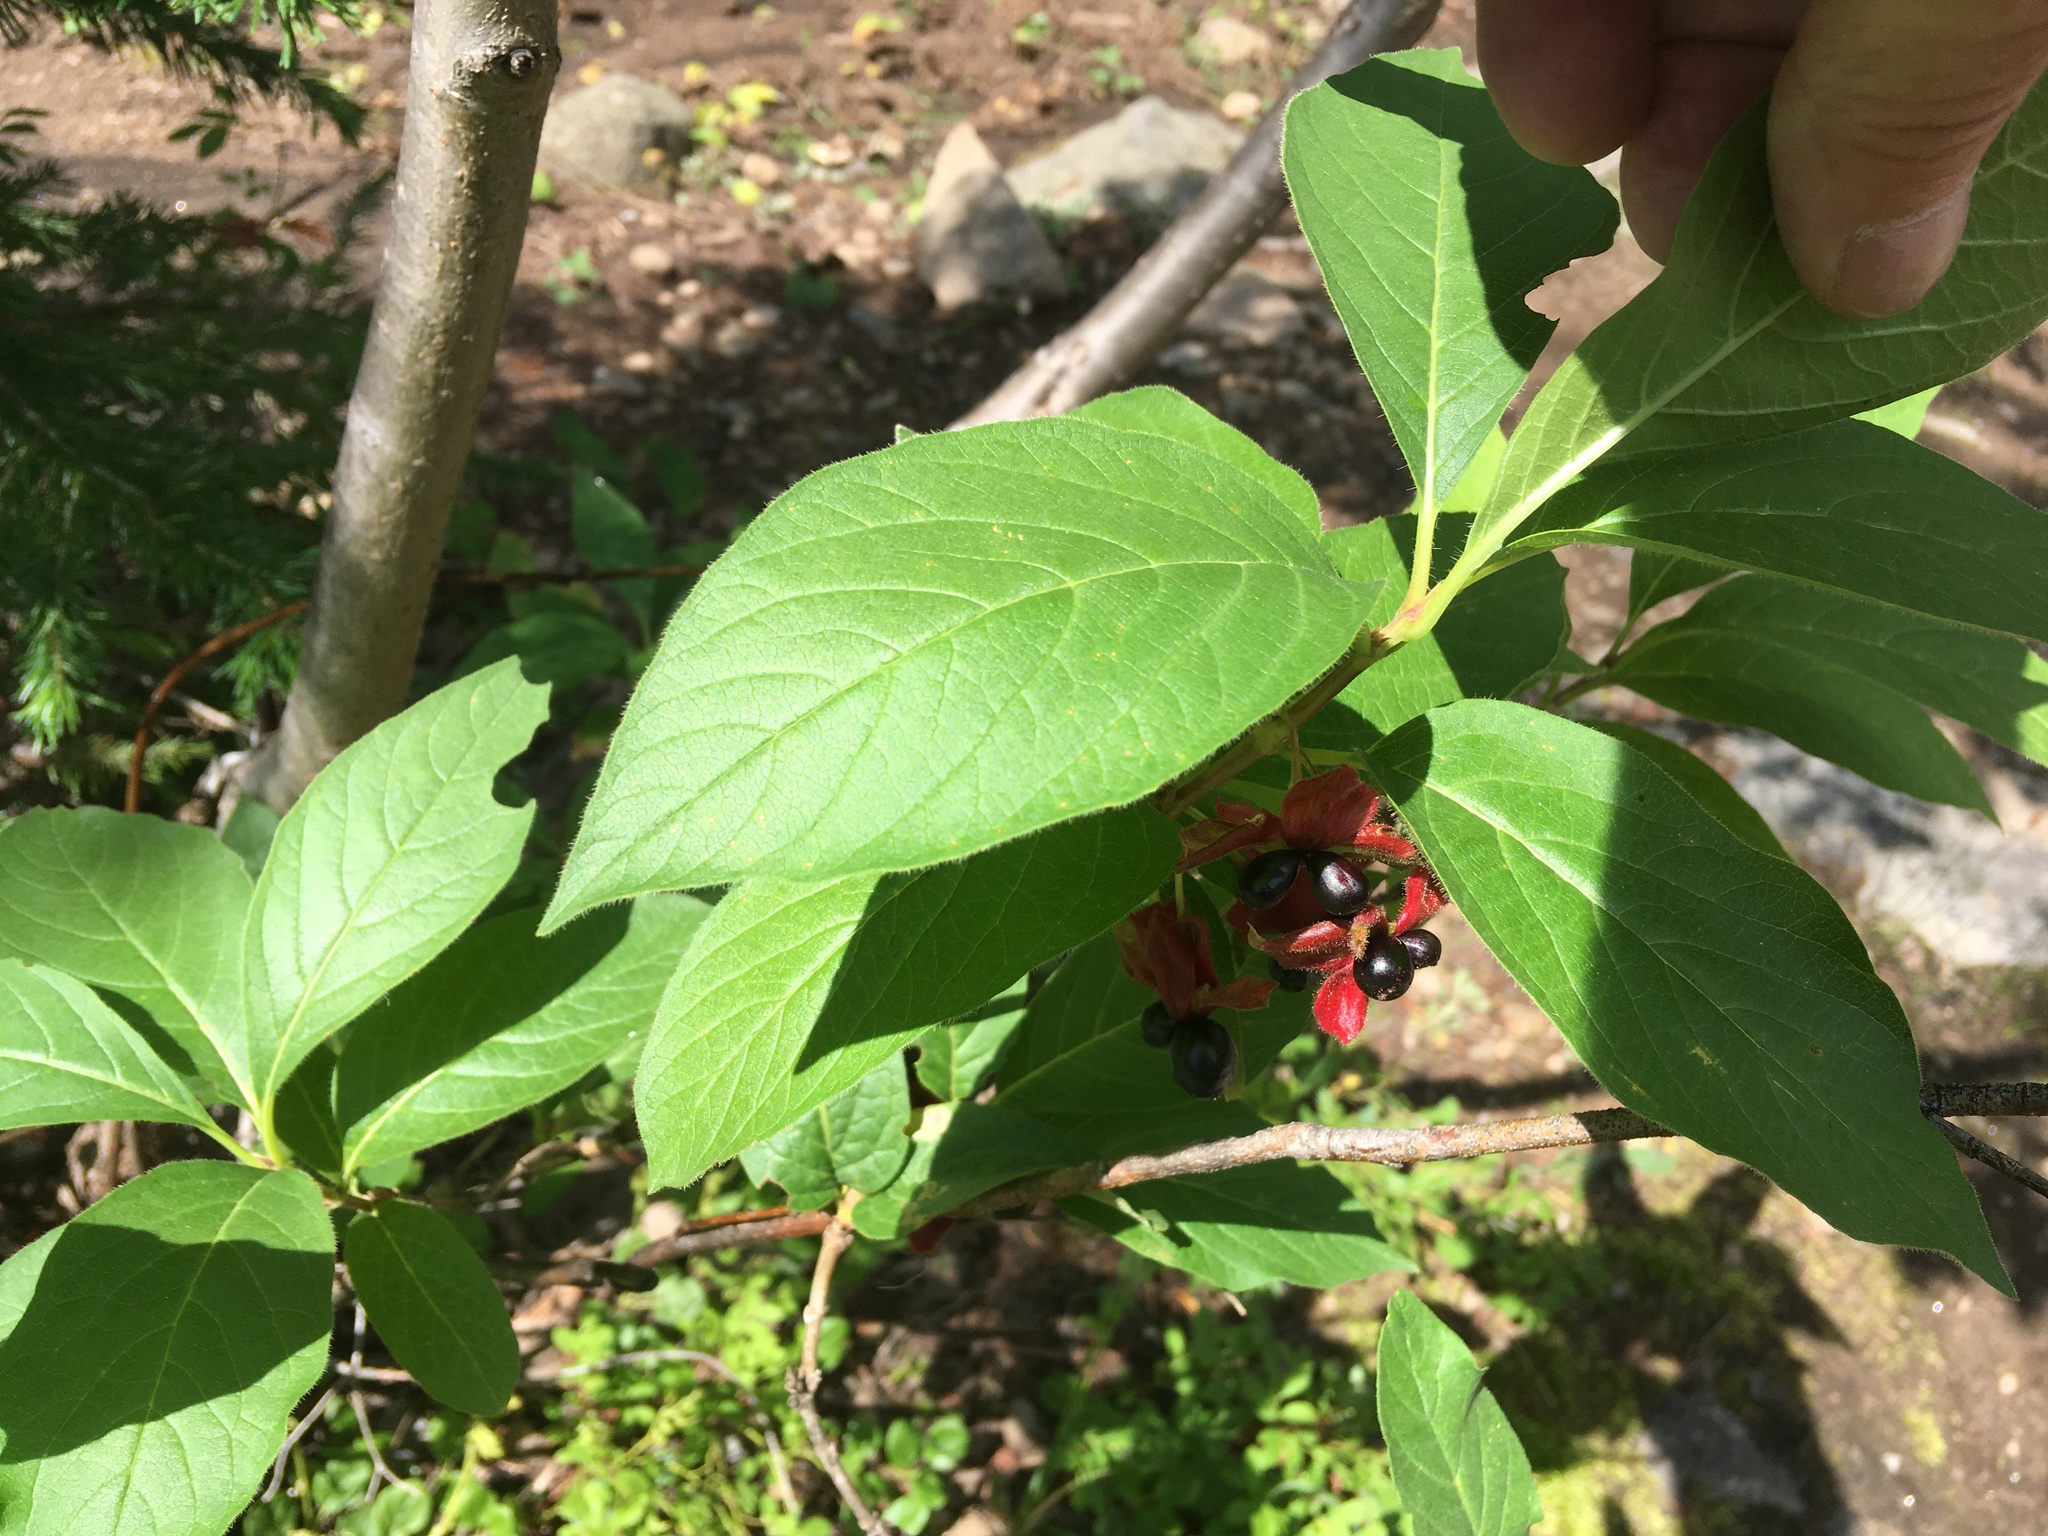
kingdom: Plantae
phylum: Tracheophyta
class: Magnoliopsida
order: Dipsacales
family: Caprifoliaceae
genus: Lonicera
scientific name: Lonicera involucrata
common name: Californian honeysuckle
